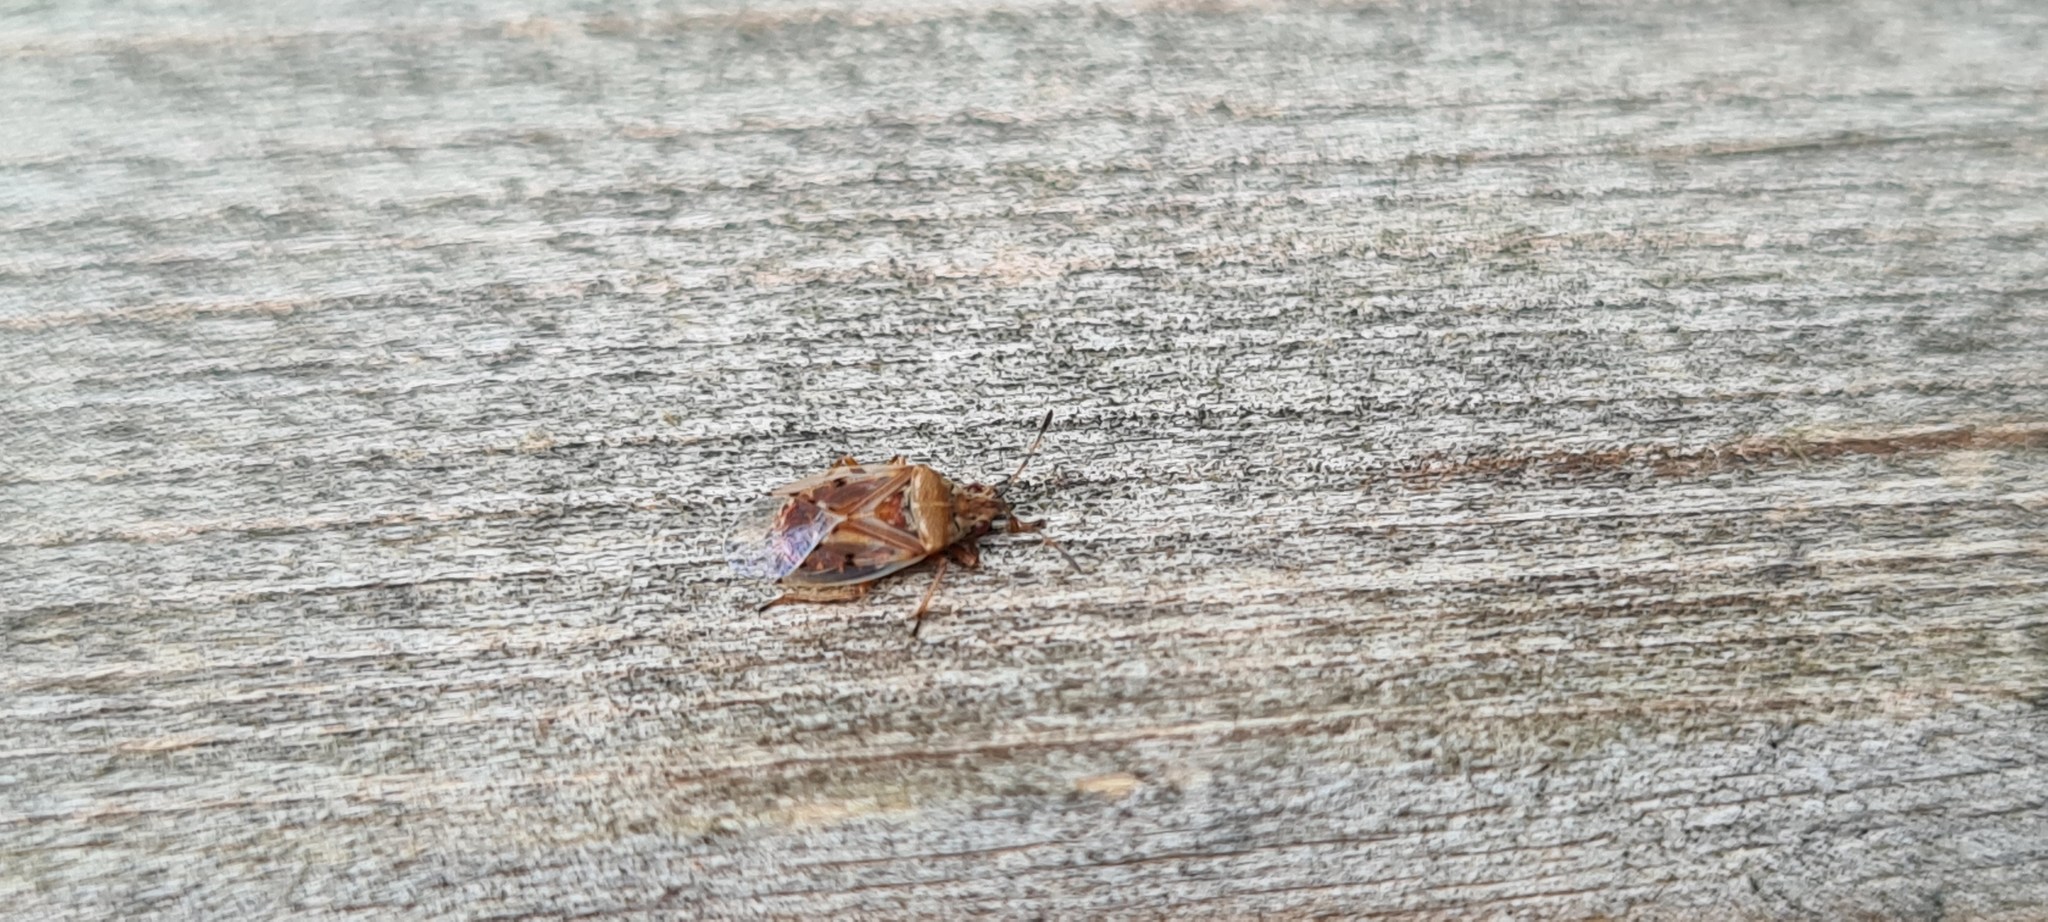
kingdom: Animalia
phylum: Arthropoda
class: Insecta
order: Hemiptera
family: Lygaeidae
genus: Kleidocerys
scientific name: Kleidocerys resedae
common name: Birch catkin bug
